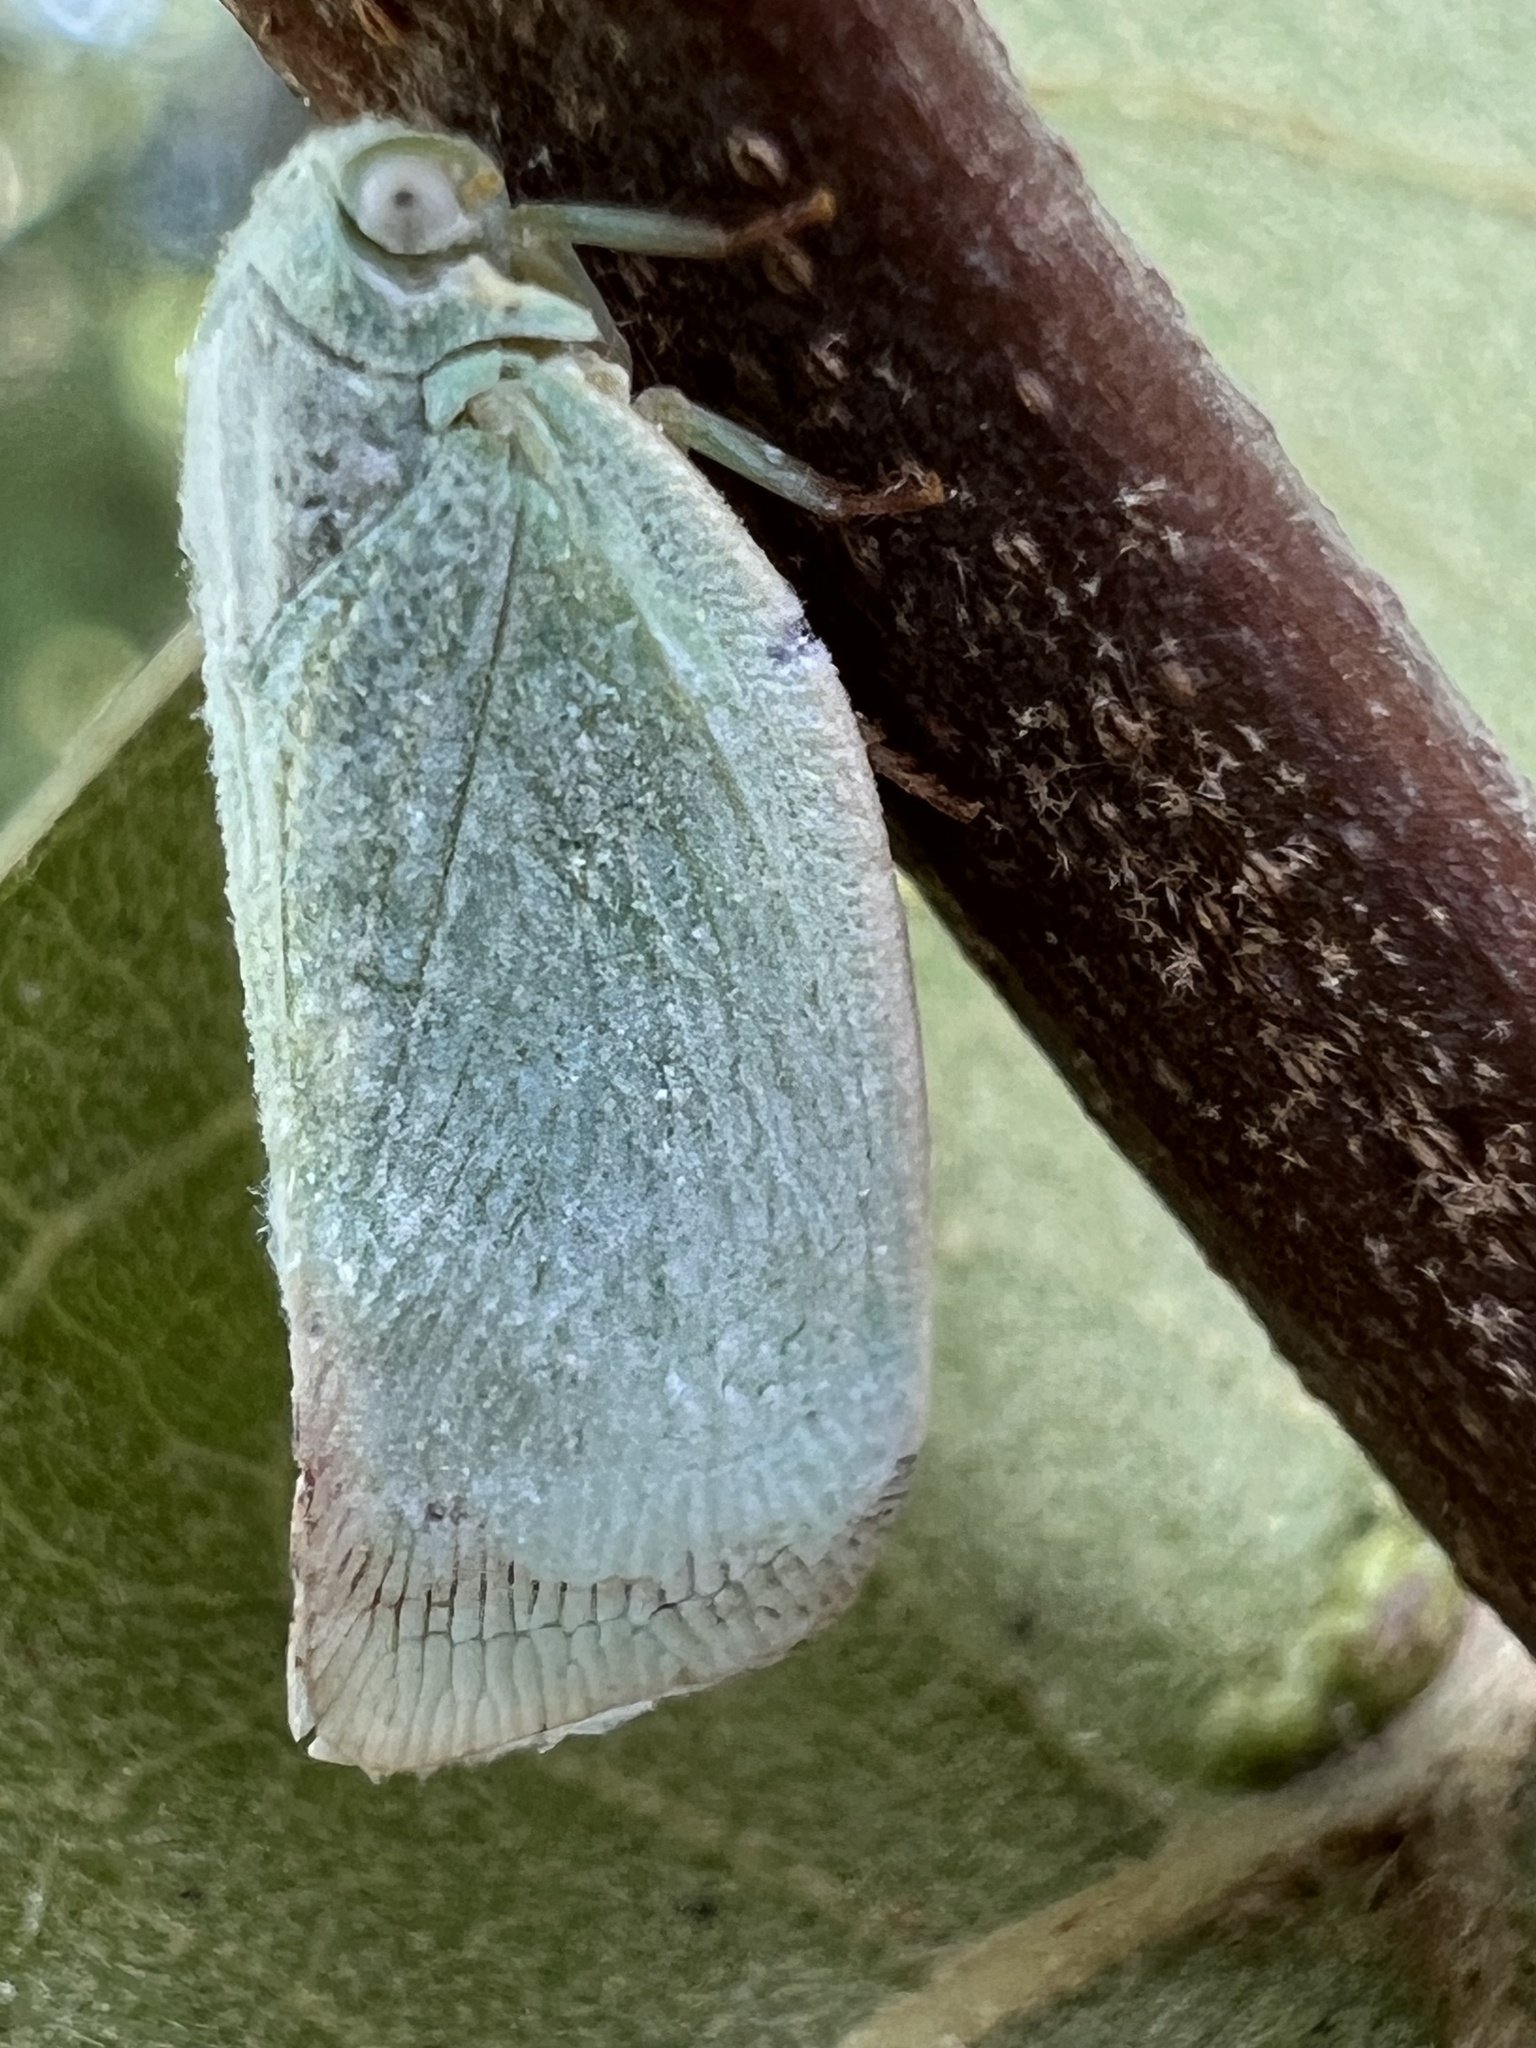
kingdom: Animalia
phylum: Arthropoda
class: Insecta
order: Hemiptera
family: Flatidae
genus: Flatormenis
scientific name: Flatormenis proxima
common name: Northern flatid planthopper
